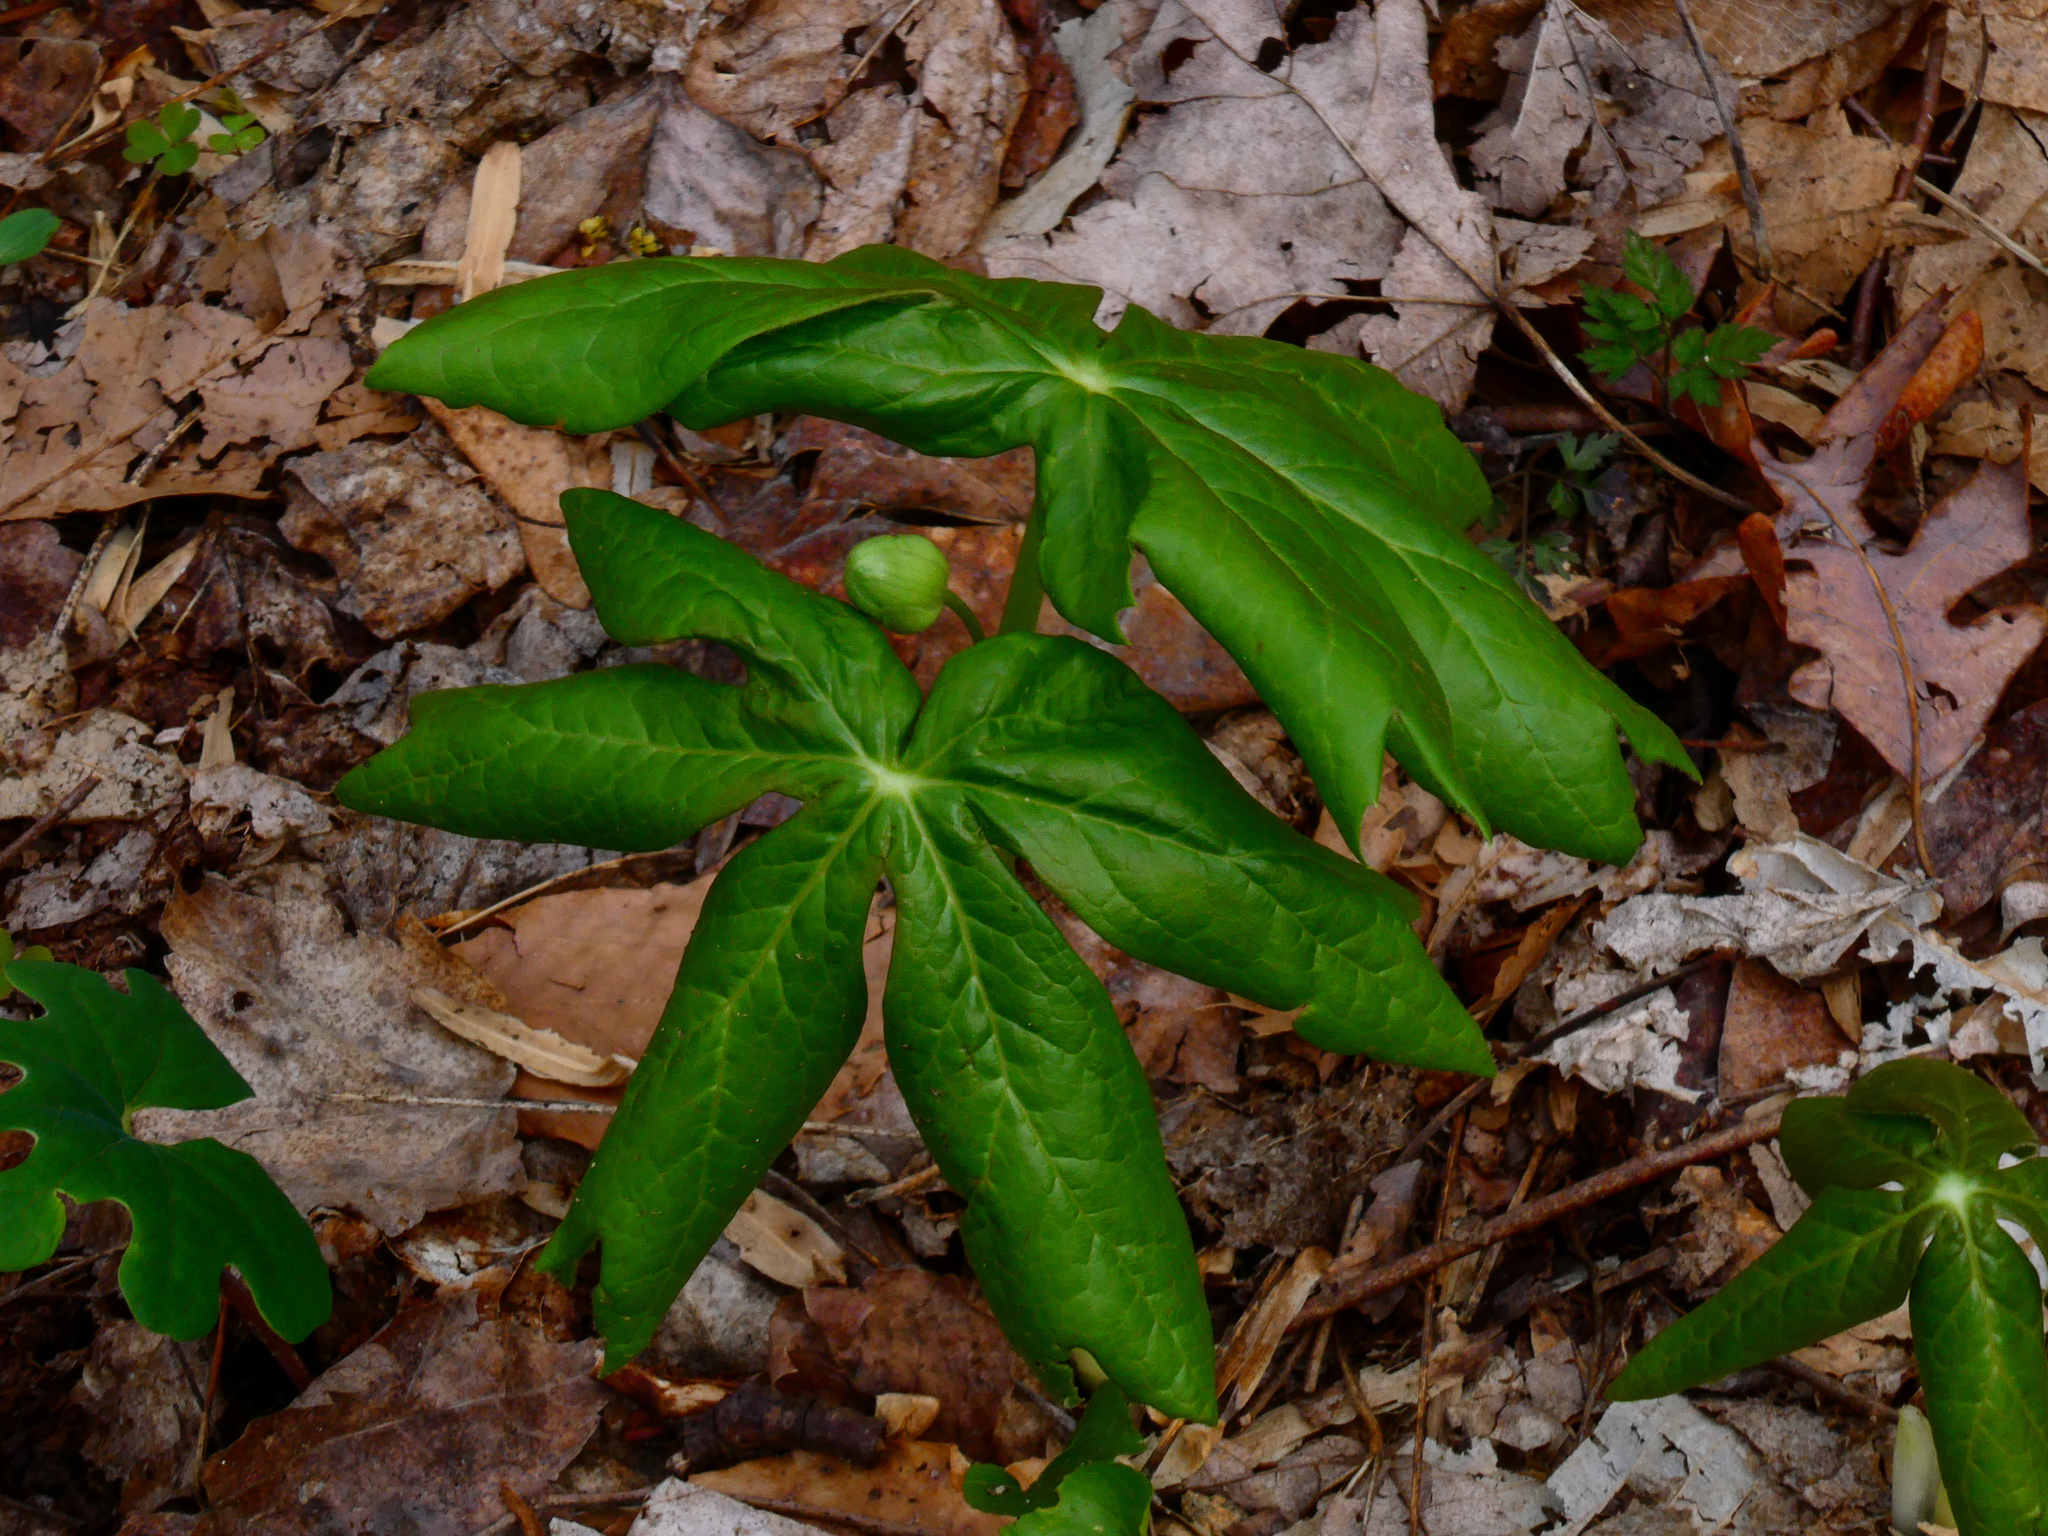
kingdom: Plantae
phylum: Tracheophyta
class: Magnoliopsida
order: Ranunculales
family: Berberidaceae
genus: Podophyllum
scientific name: Podophyllum peltatum
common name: Wild mandrake
